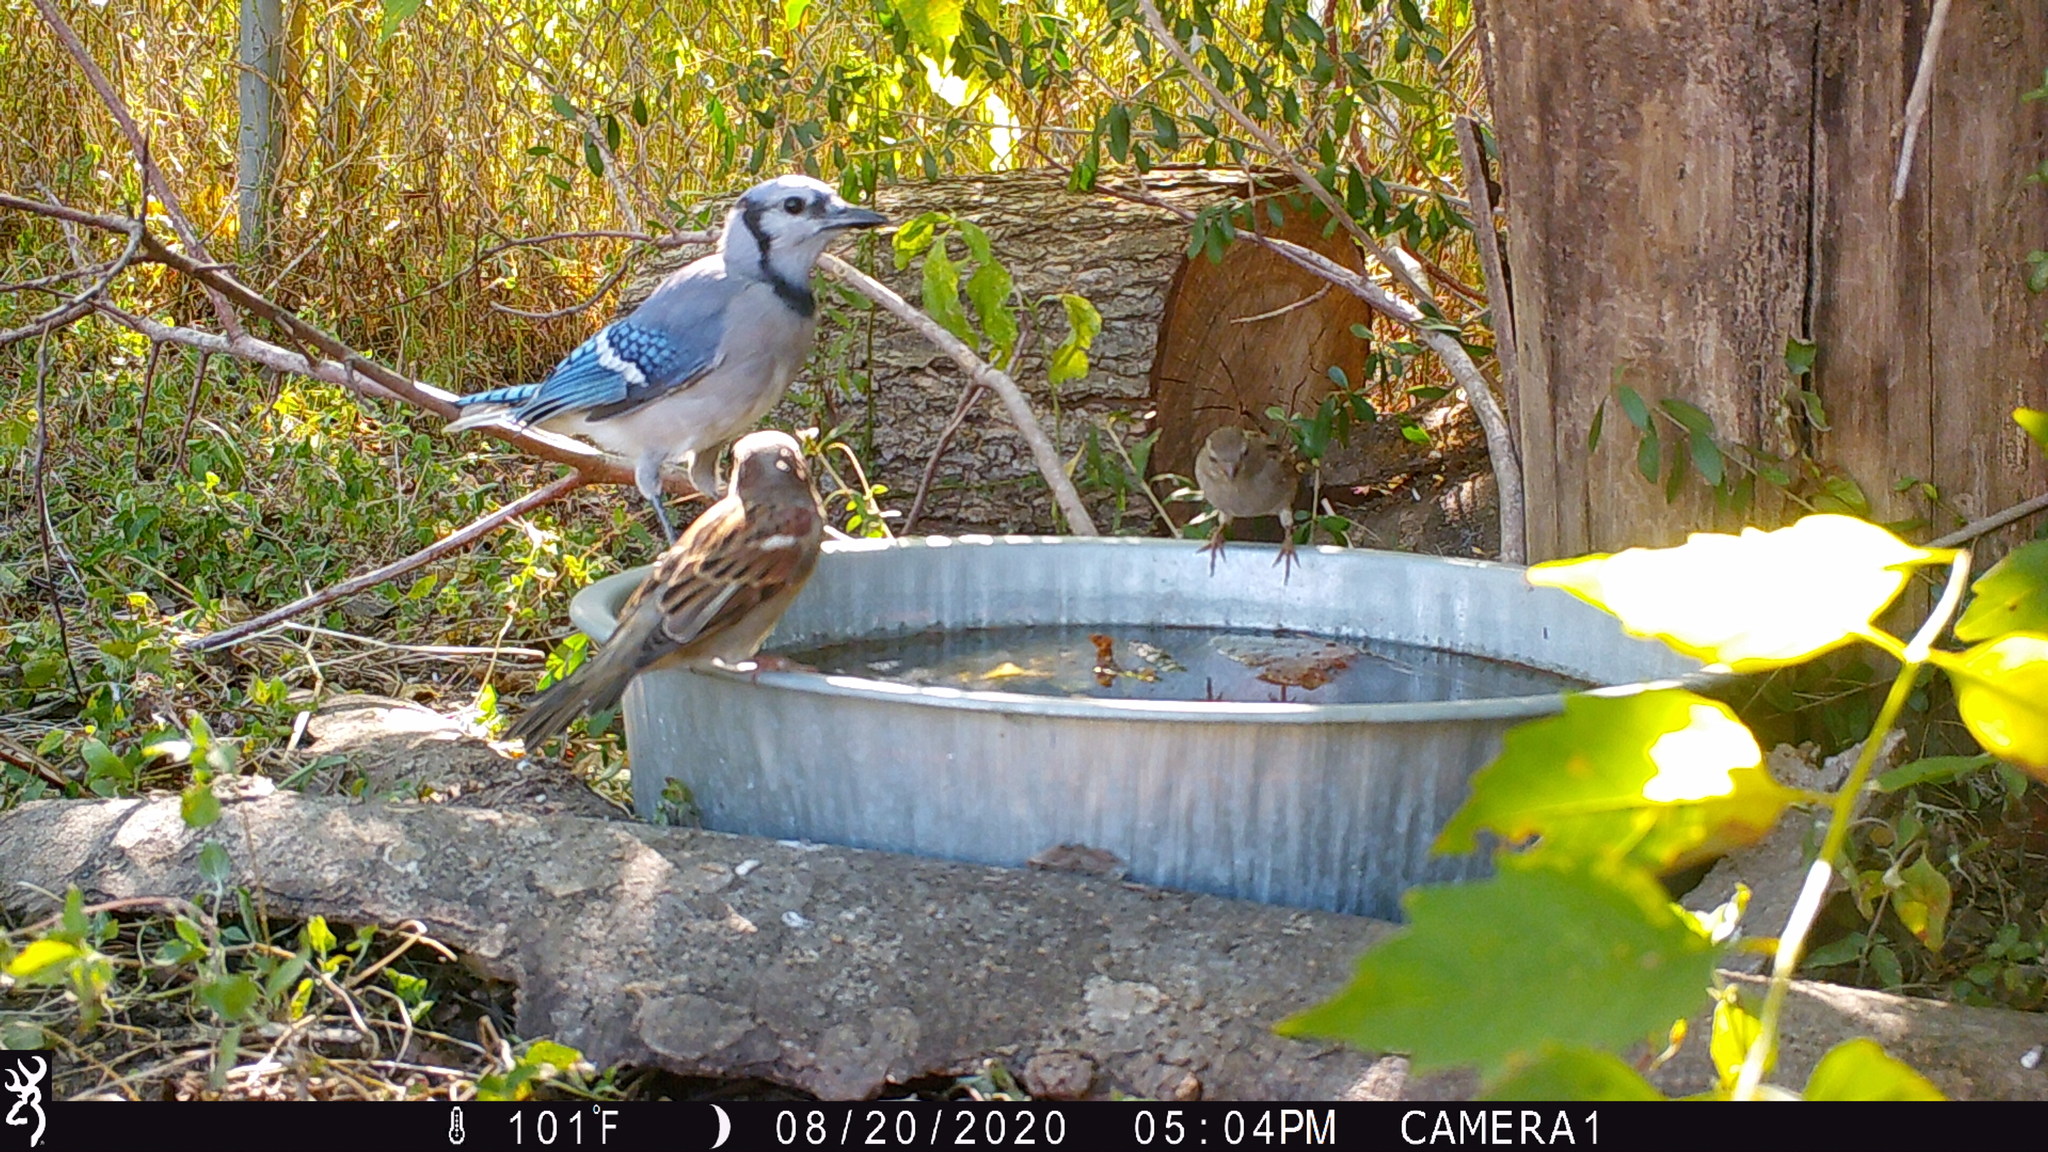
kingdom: Animalia
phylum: Chordata
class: Aves
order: Passeriformes
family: Corvidae
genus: Cyanocitta
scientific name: Cyanocitta cristata
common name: Blue jay
